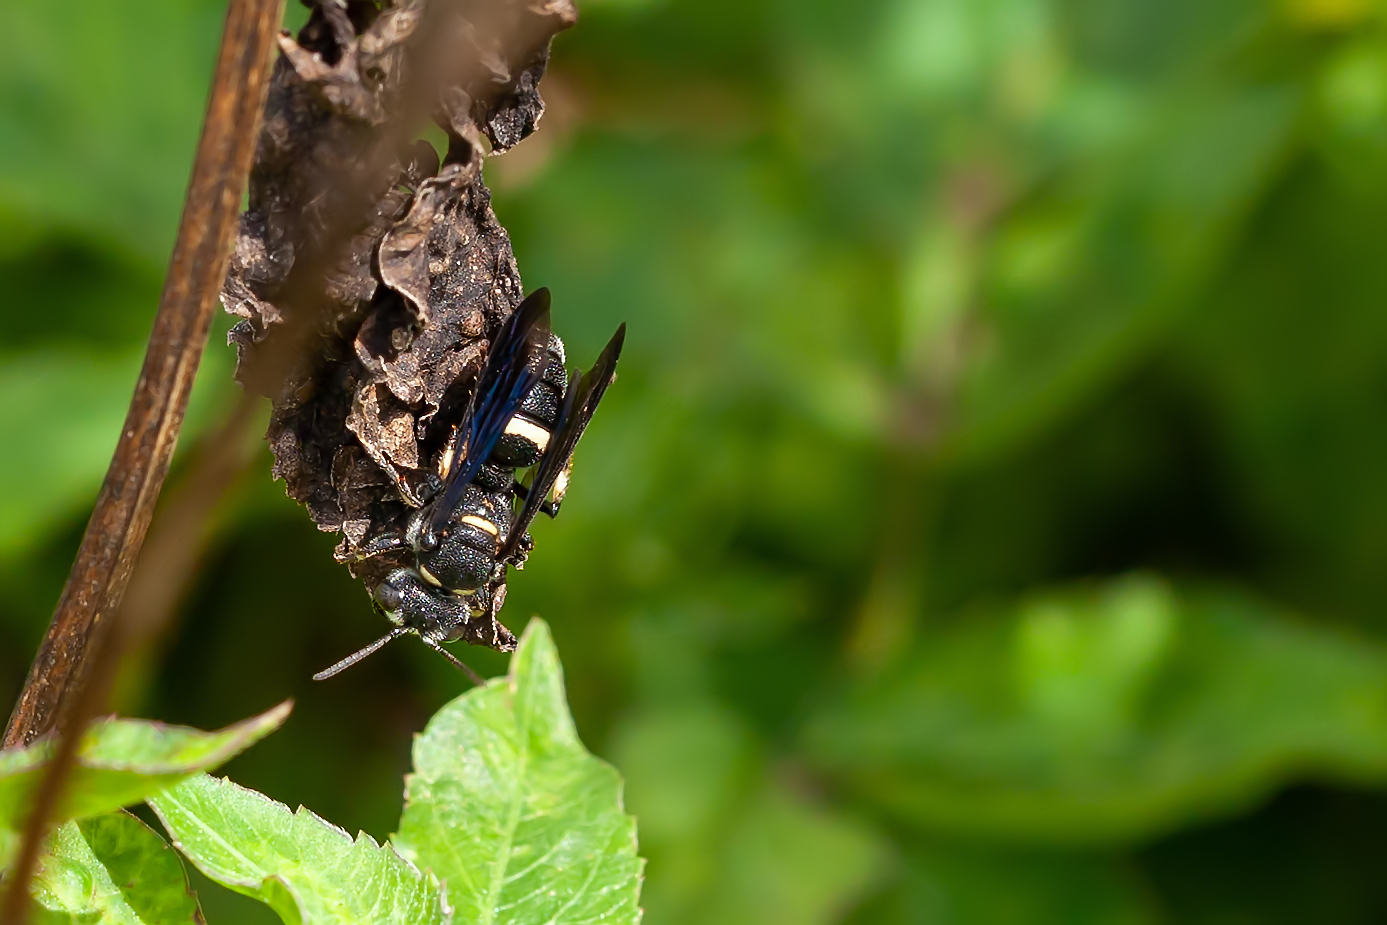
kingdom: Animalia
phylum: Arthropoda
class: Insecta
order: Hymenoptera
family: Crabronidae
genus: Cerceris
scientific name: Cerceris fumipennis
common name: Smokey-winged beetle bandit wasp
